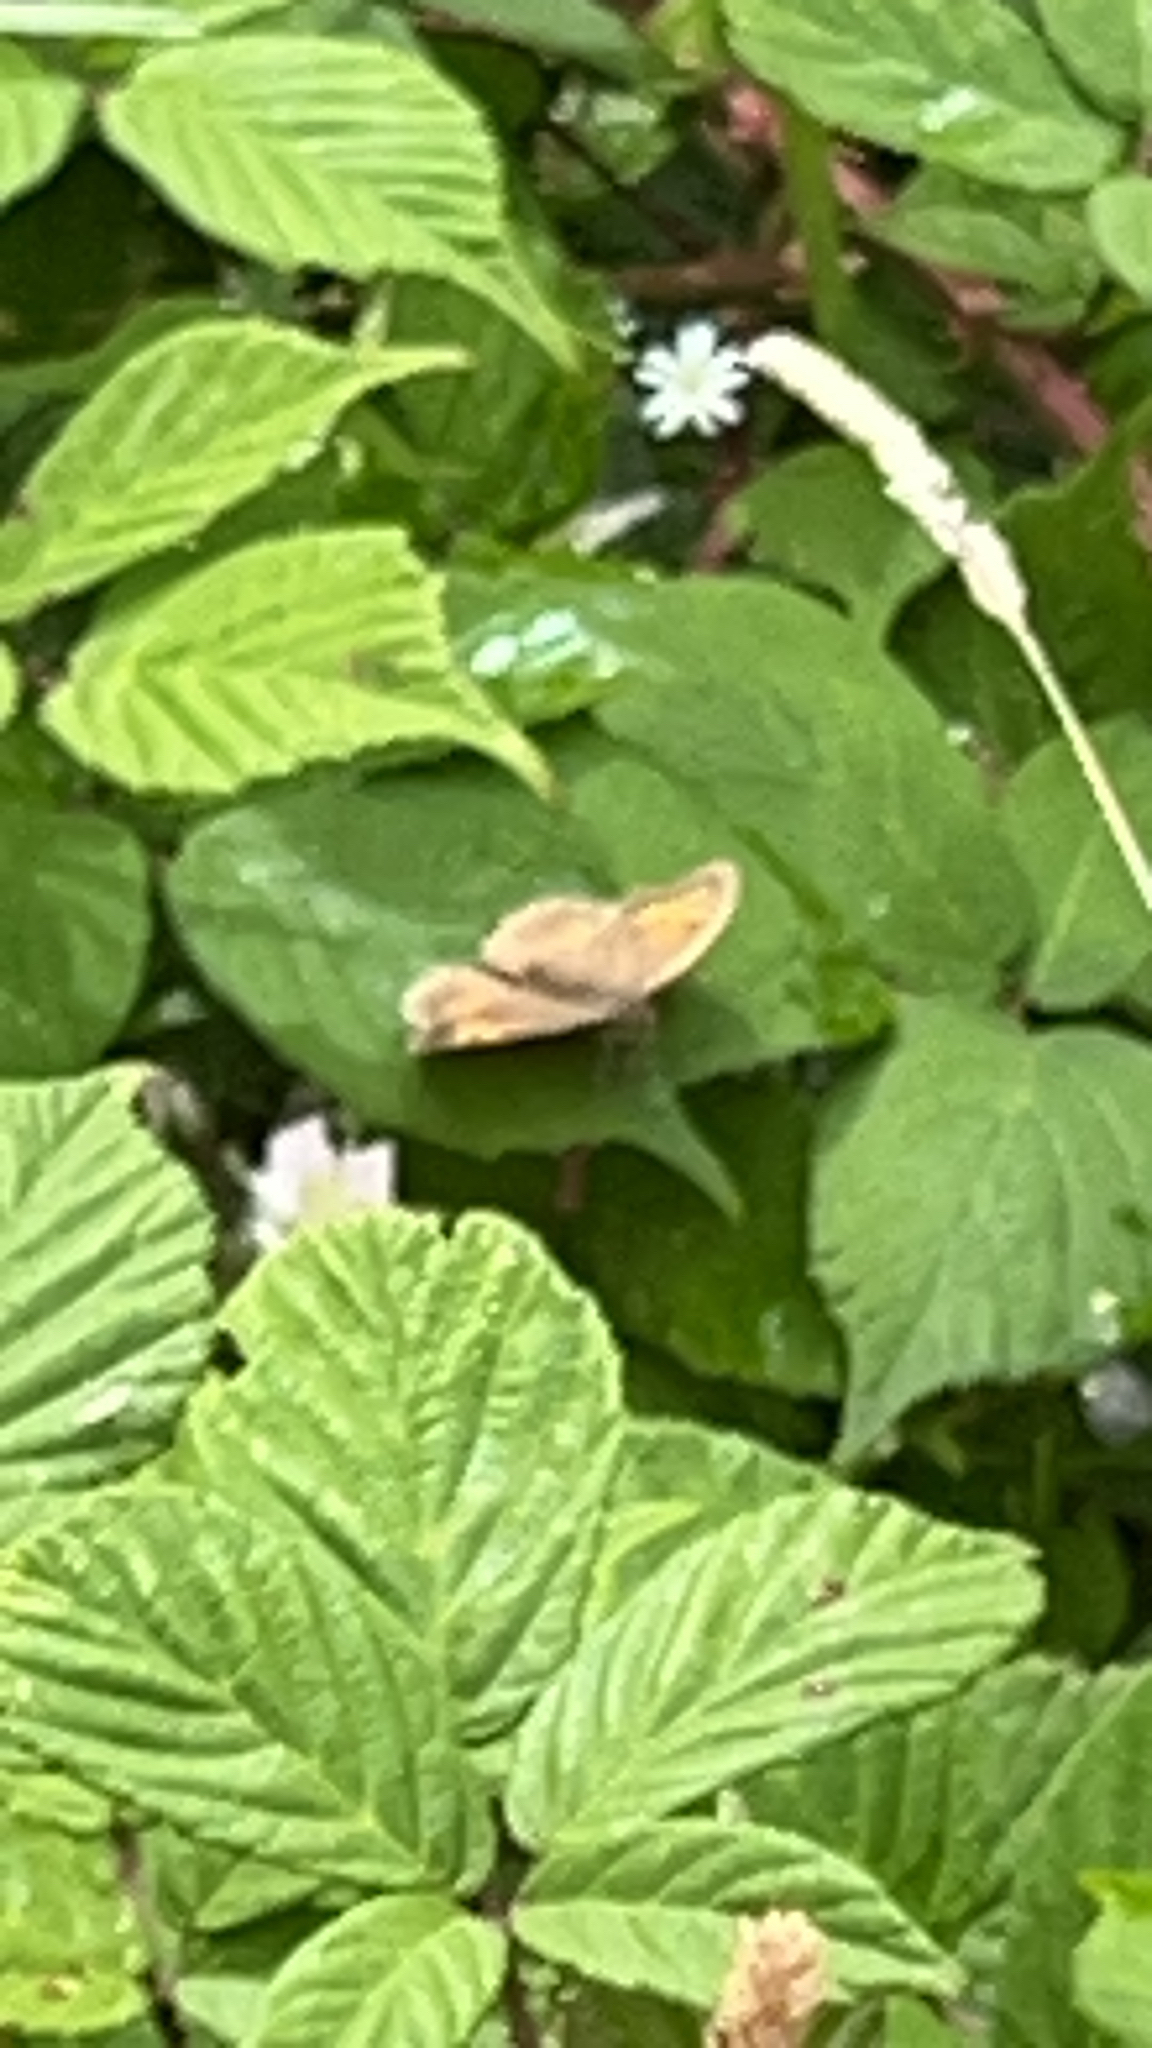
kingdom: Animalia
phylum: Arthropoda
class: Insecta
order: Lepidoptera
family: Nymphalidae
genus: Pyronia
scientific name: Pyronia tithonus
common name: Gatekeeper
